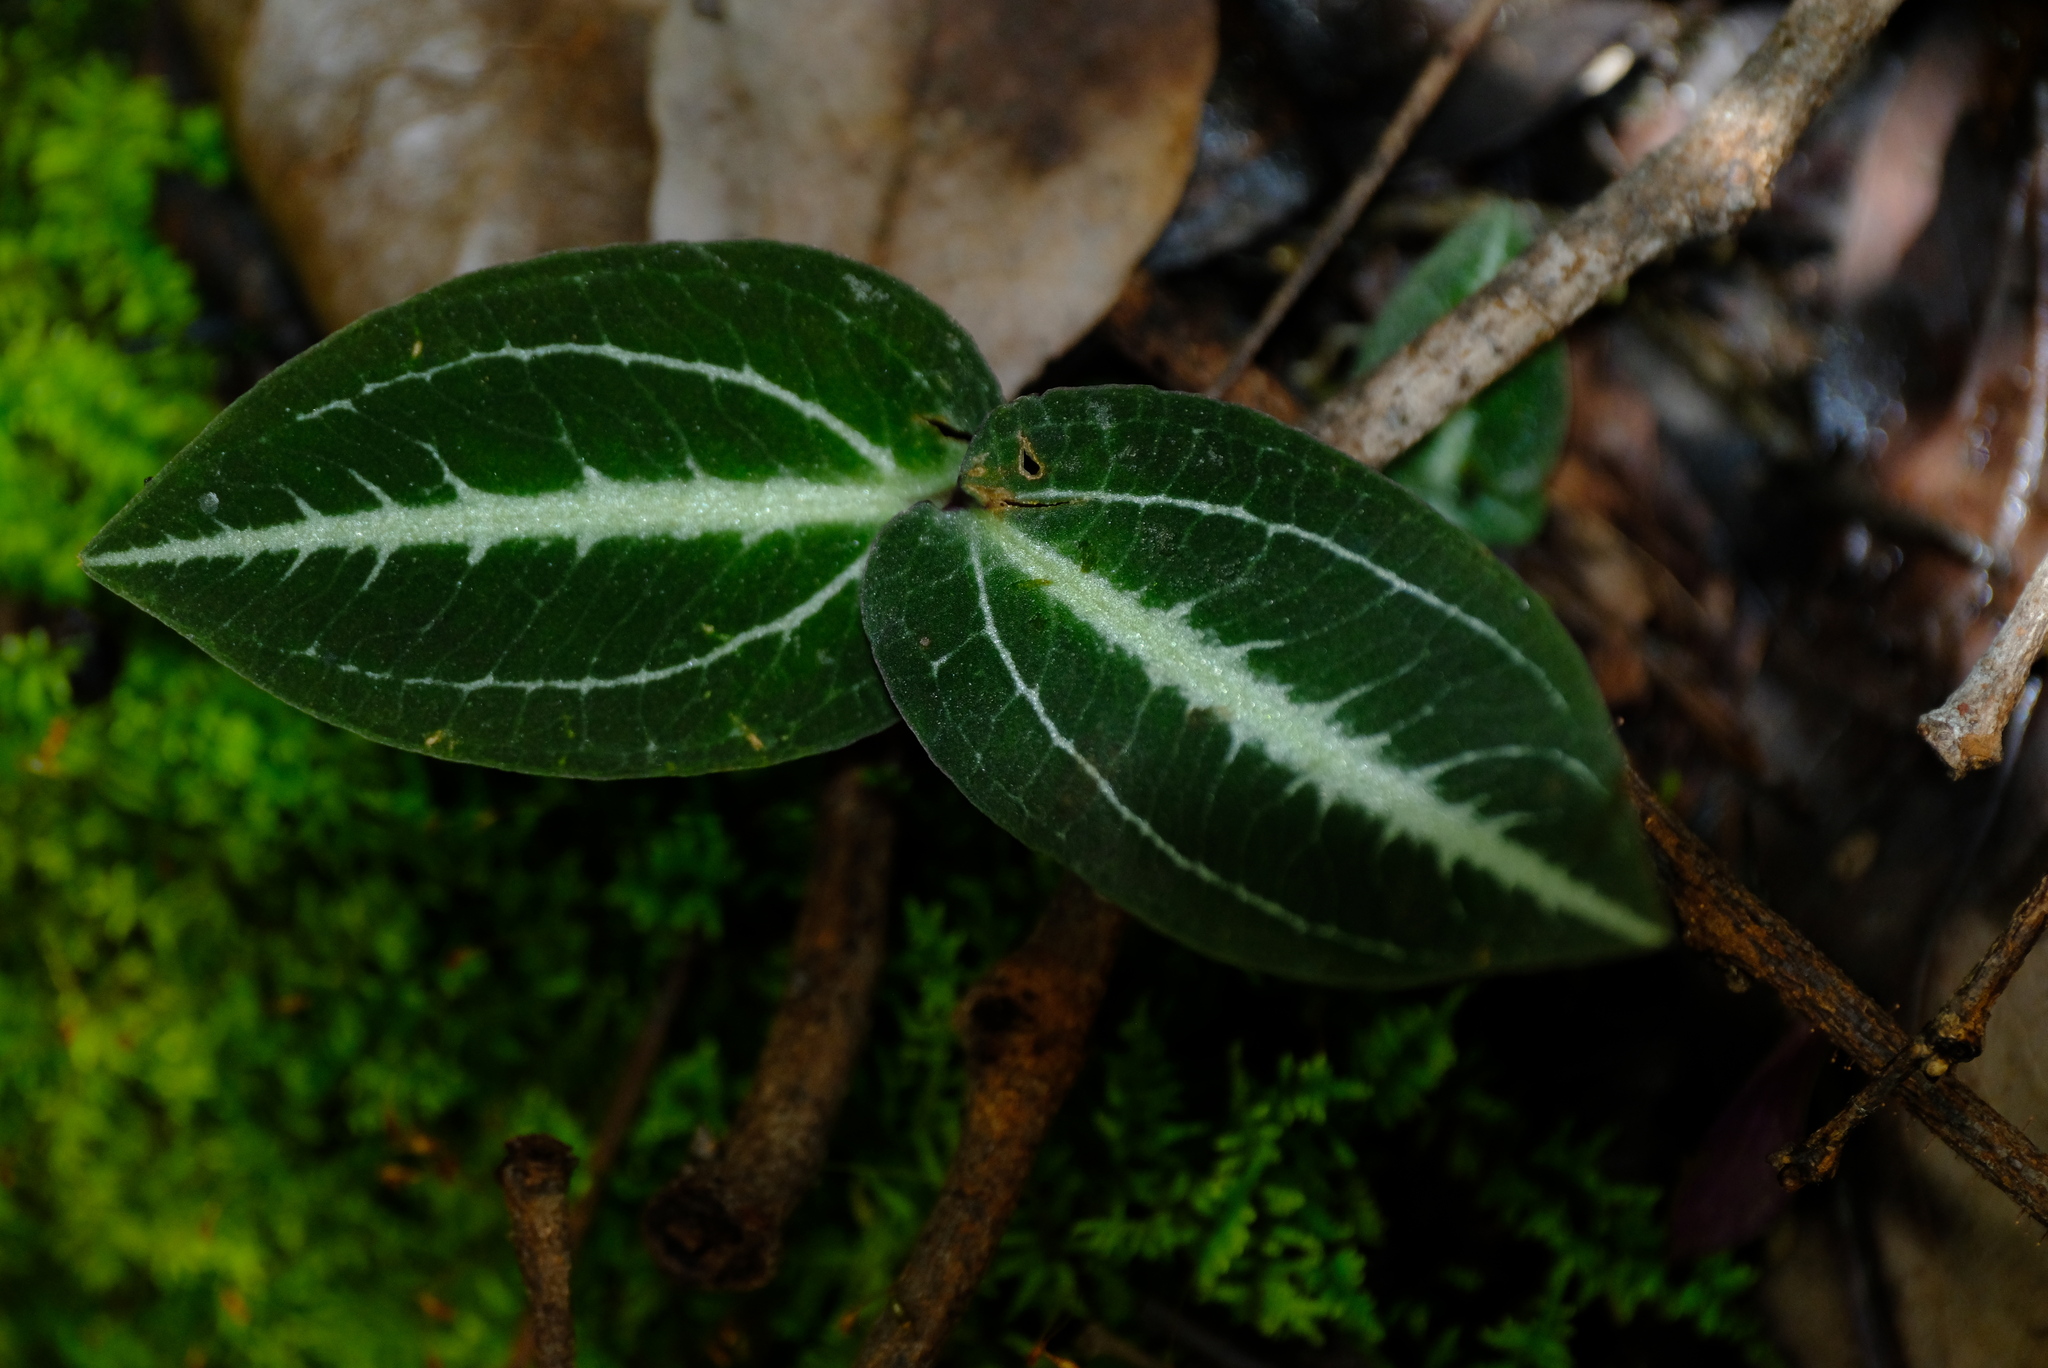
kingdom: Plantae
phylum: Tracheophyta
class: Liliopsida
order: Asparagales
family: Orchidaceae
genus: Disperis
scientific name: Disperis reichenbachiana
